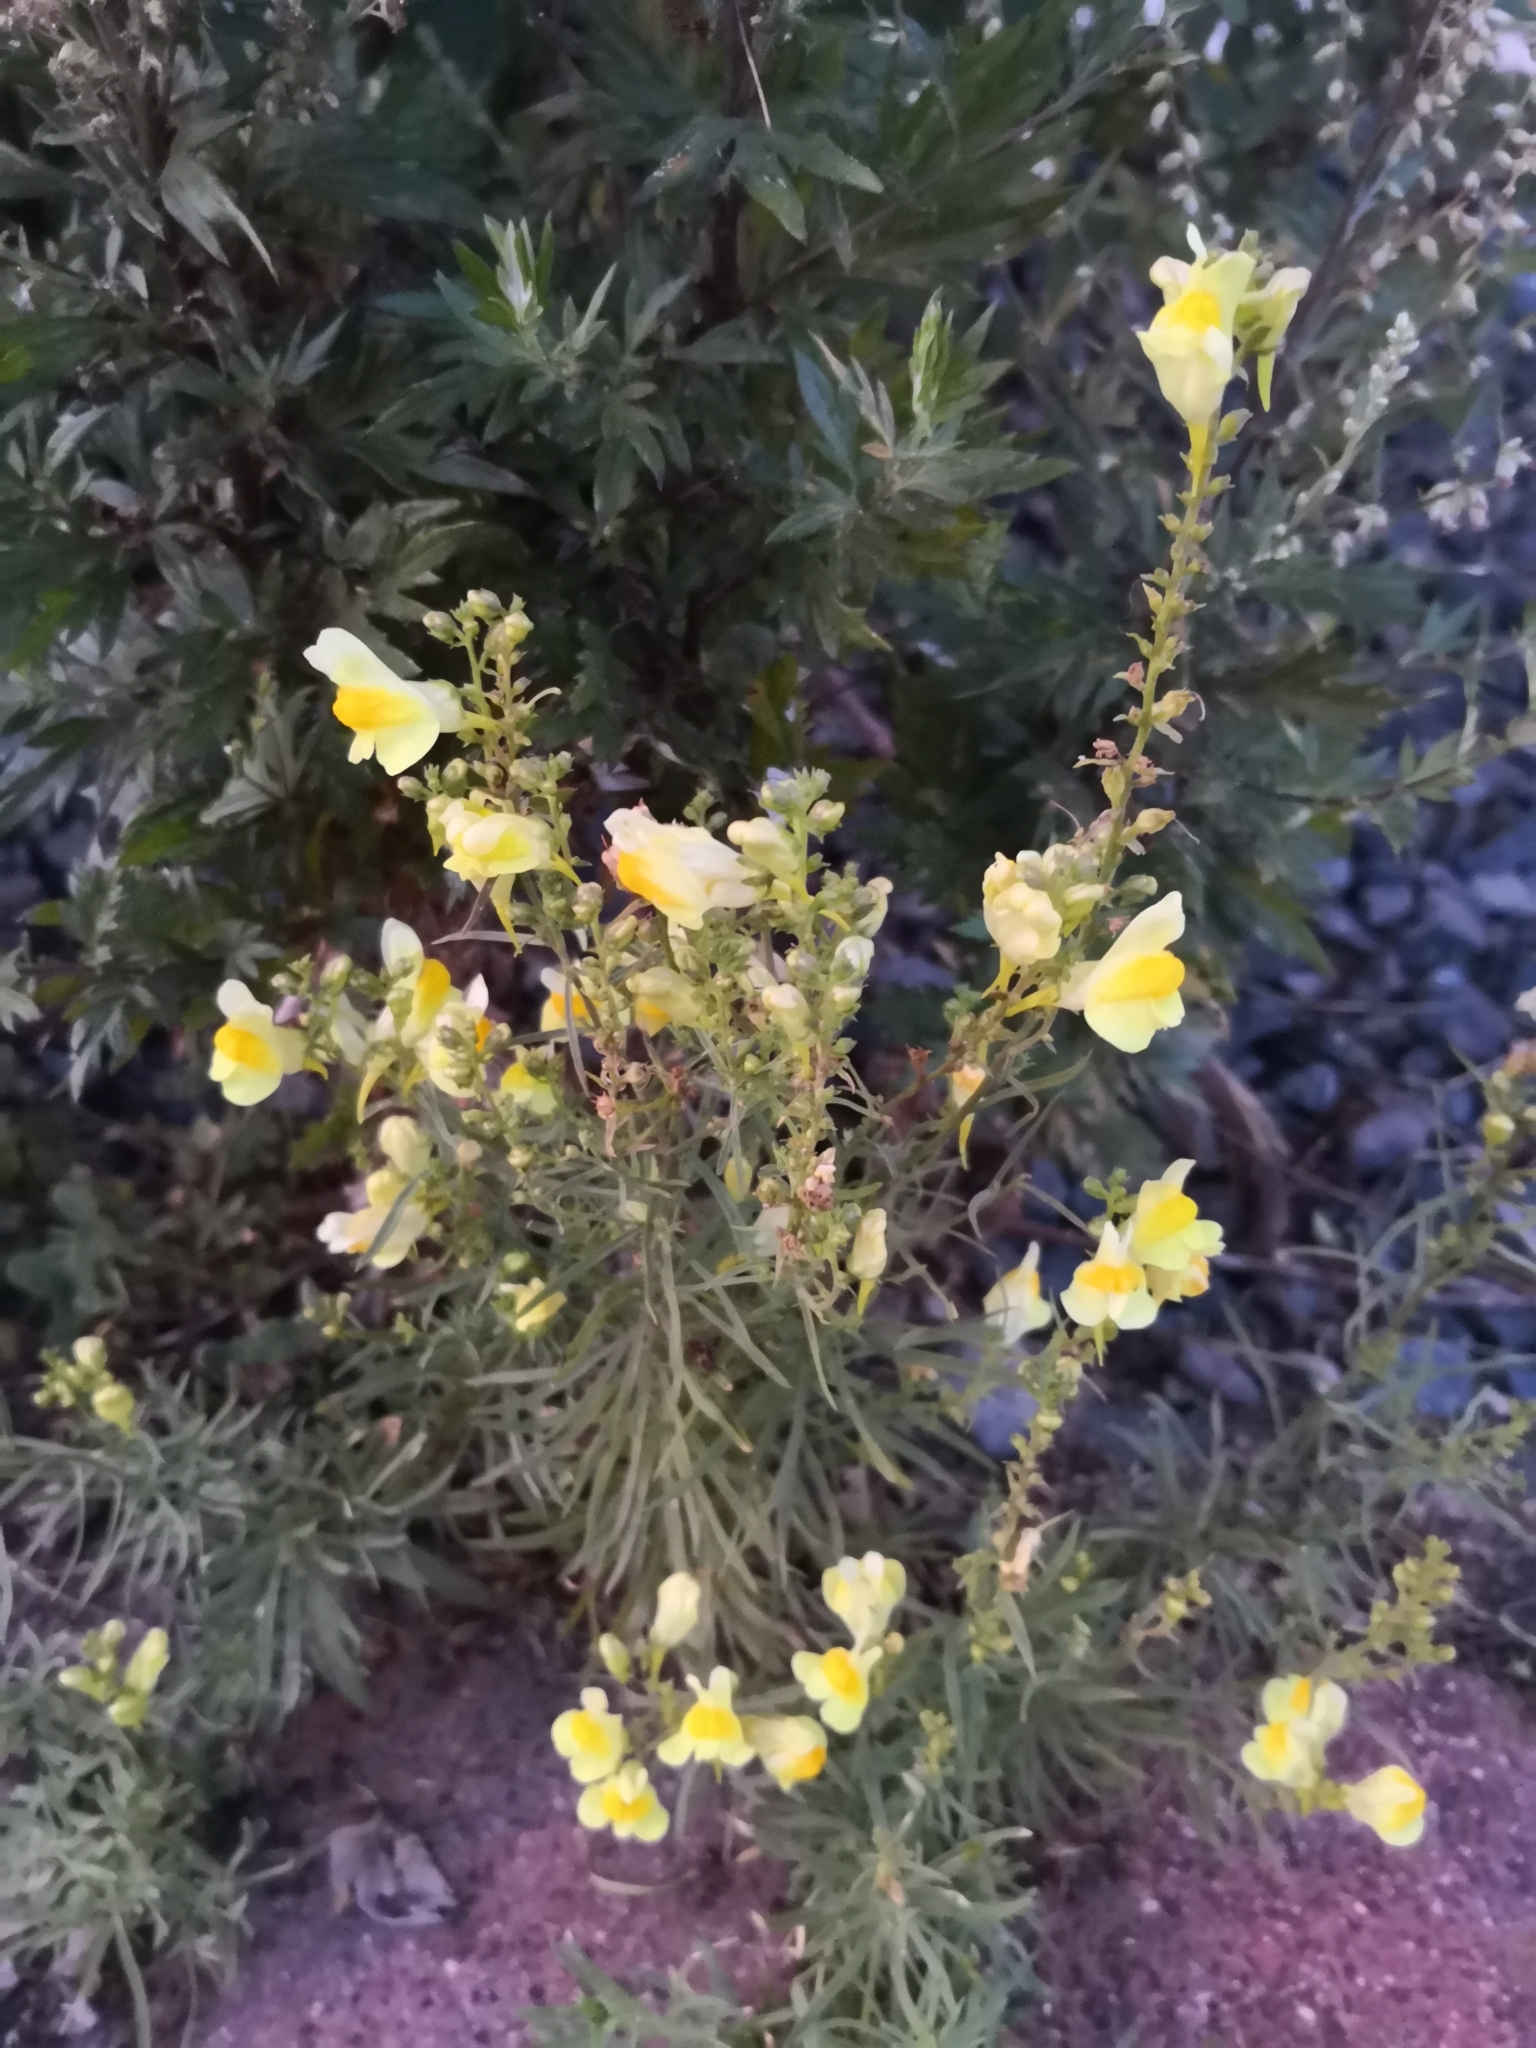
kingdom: Plantae
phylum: Tracheophyta
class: Magnoliopsida
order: Lamiales
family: Plantaginaceae
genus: Linaria
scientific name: Linaria vulgaris
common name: Butter and eggs
